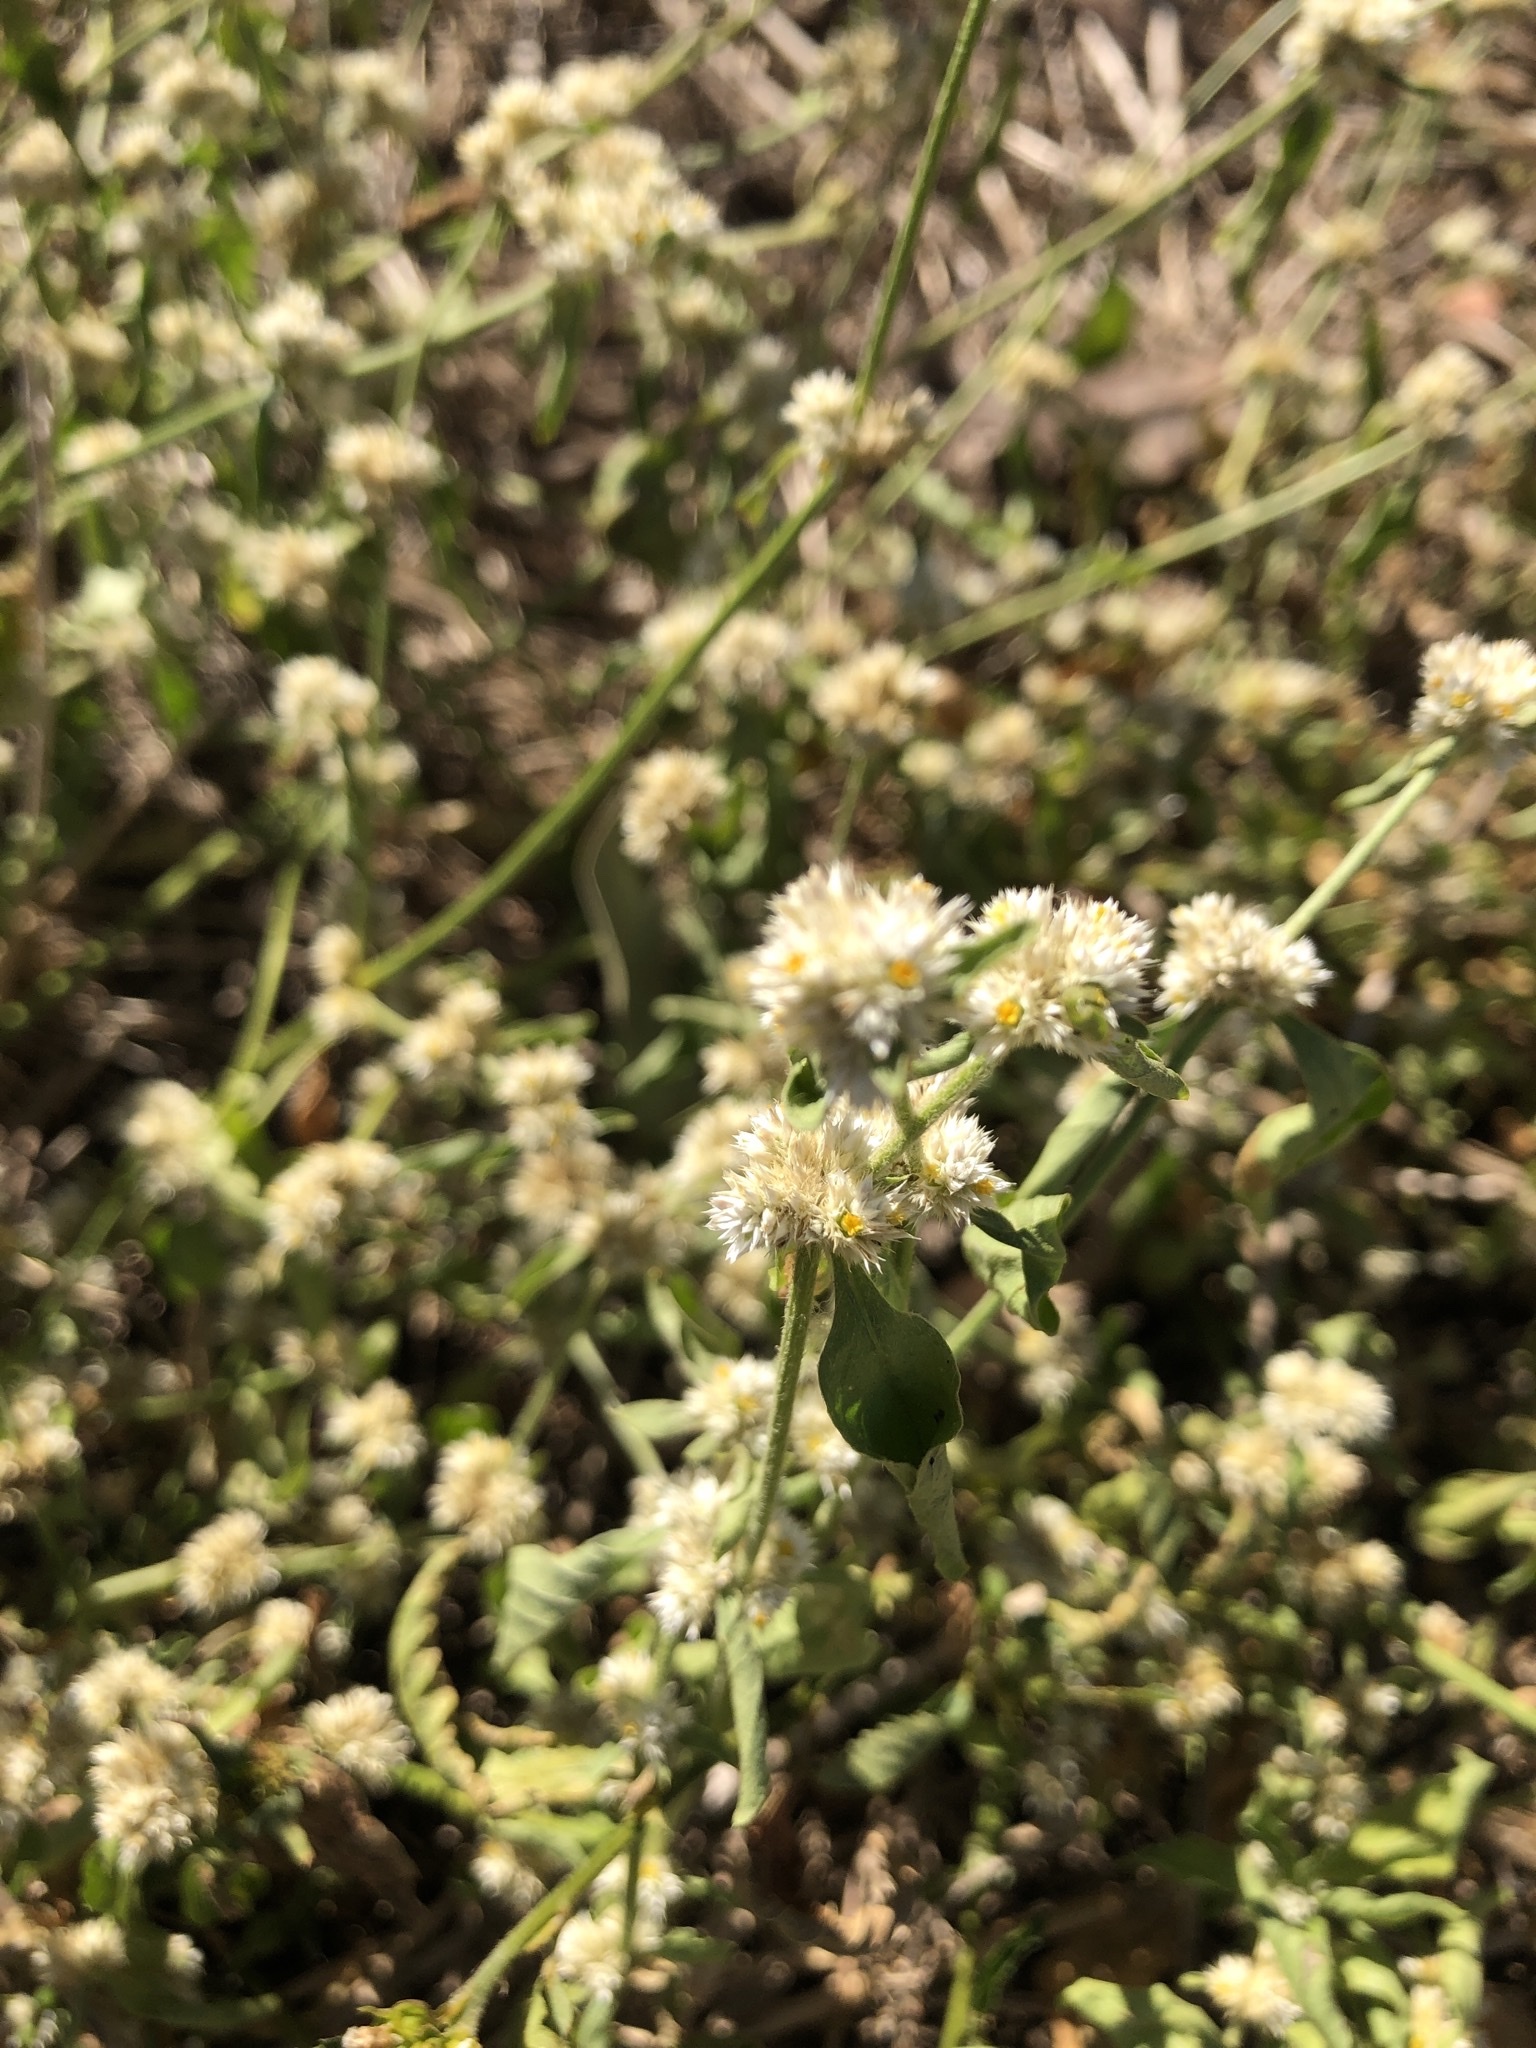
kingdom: Plantae
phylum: Tracheophyta
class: Magnoliopsida
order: Caryophyllales
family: Amaranthaceae
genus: Alternanthera
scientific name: Alternanthera ficoidea
